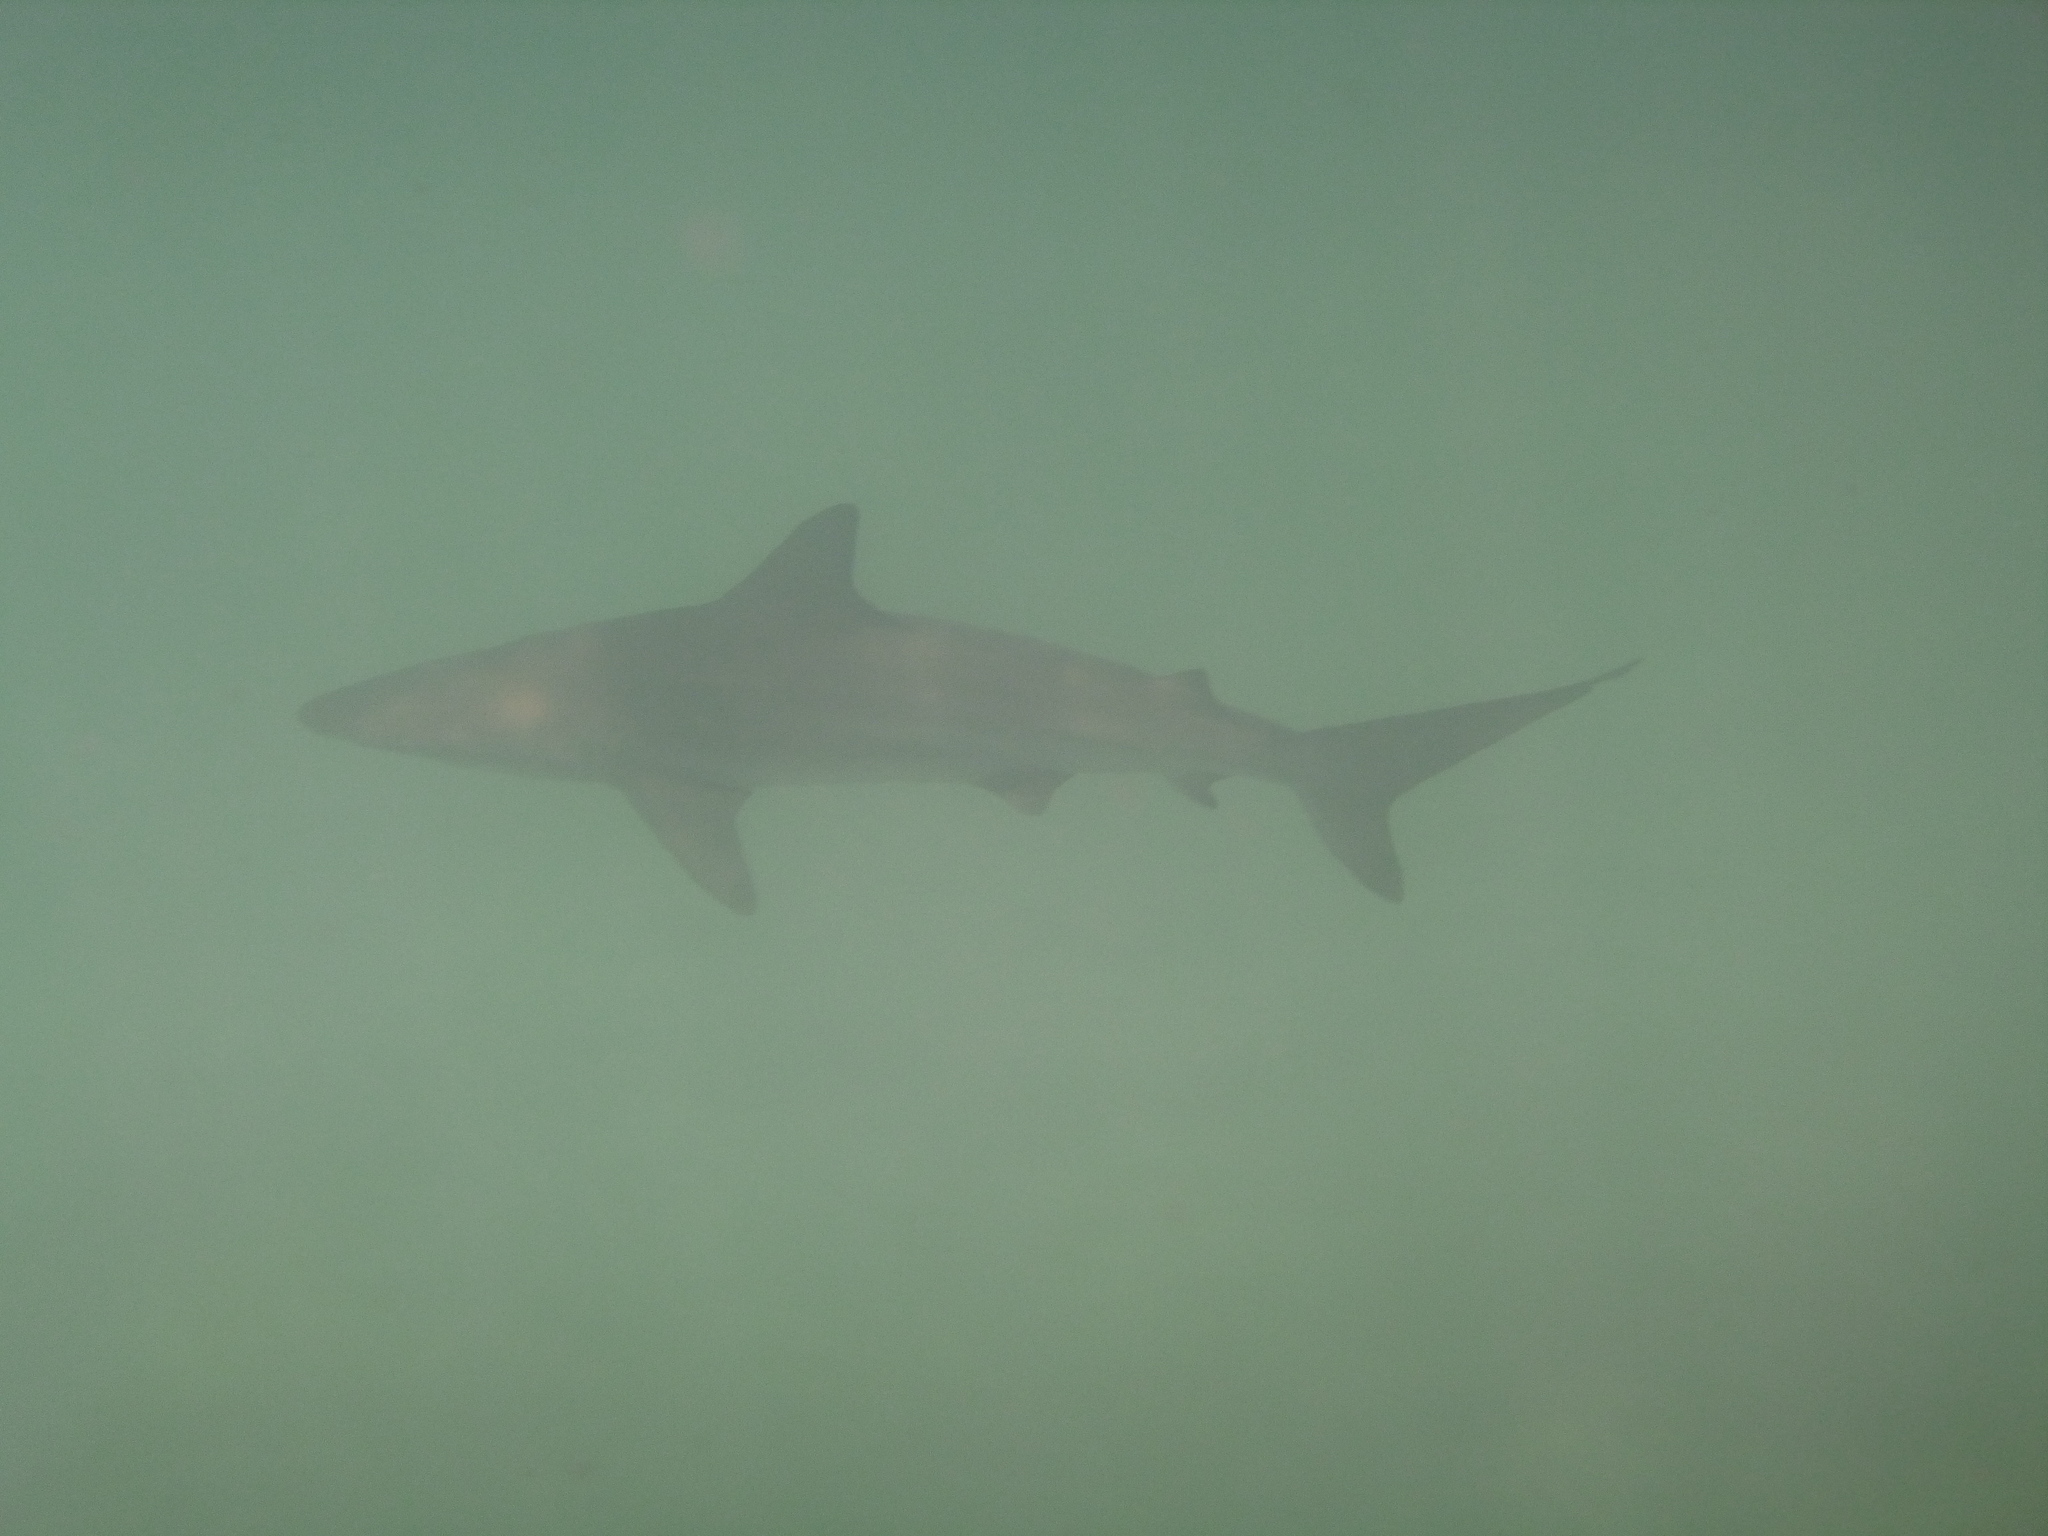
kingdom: Animalia
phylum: Chordata
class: Elasmobranchii
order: Carcharhiniformes
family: Carcharhinidae
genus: Carcharhinus
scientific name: Carcharhinus limbatus
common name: Blacktip shark
